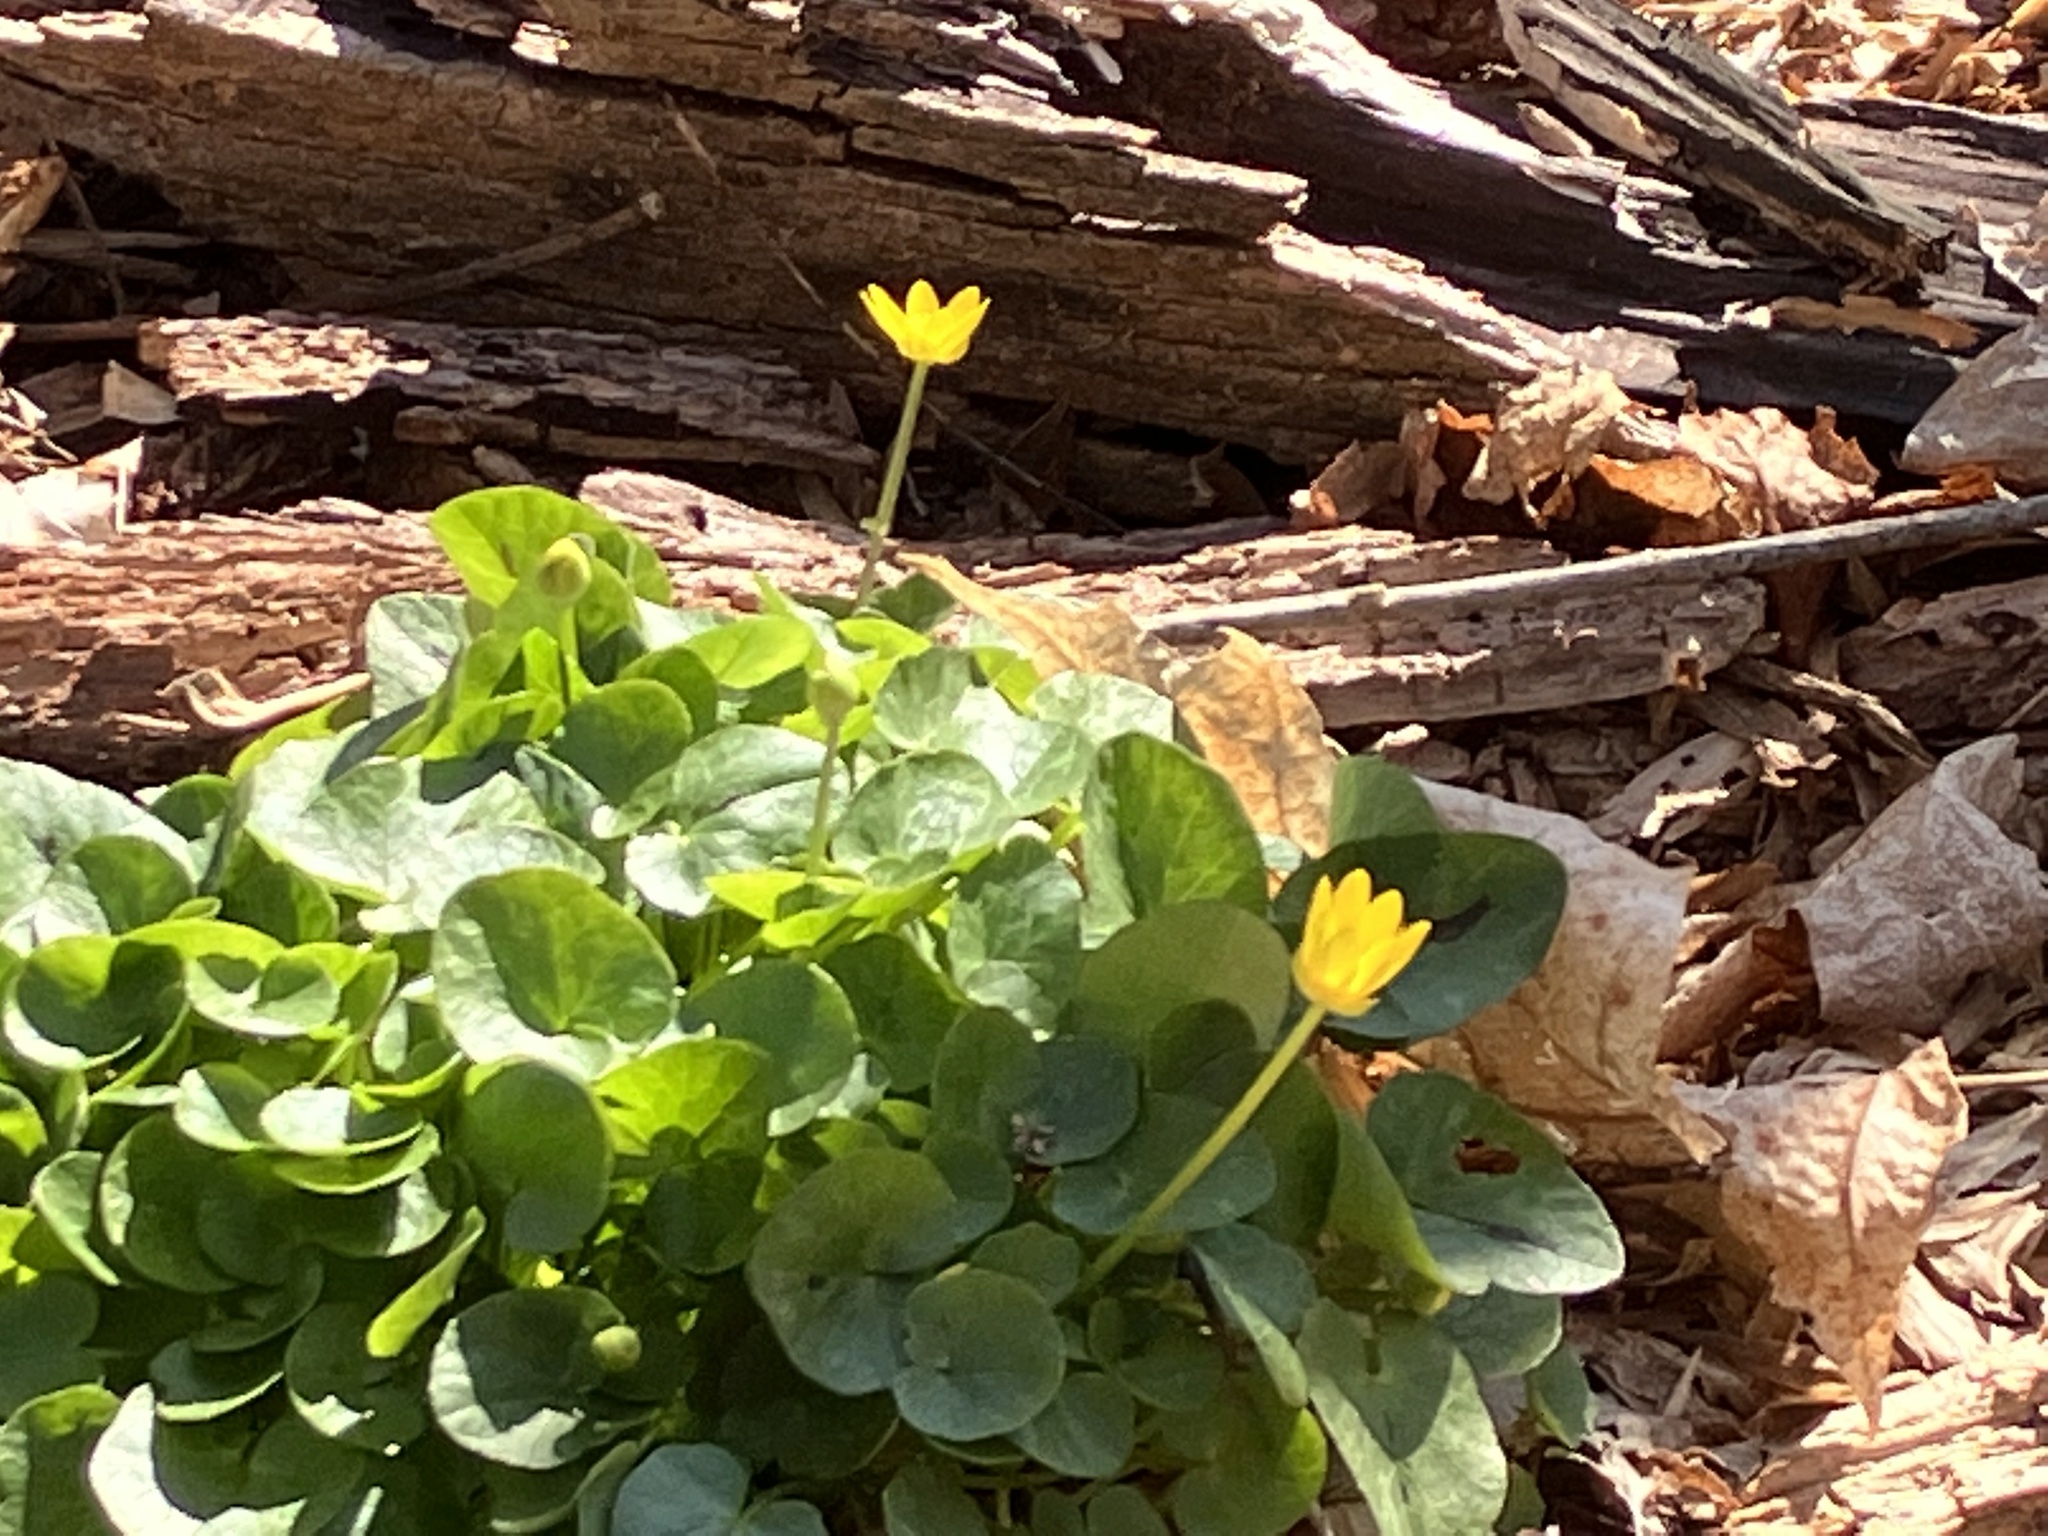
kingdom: Plantae
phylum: Tracheophyta
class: Magnoliopsida
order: Ranunculales
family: Ranunculaceae
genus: Ficaria
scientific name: Ficaria verna
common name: Lesser celandine
